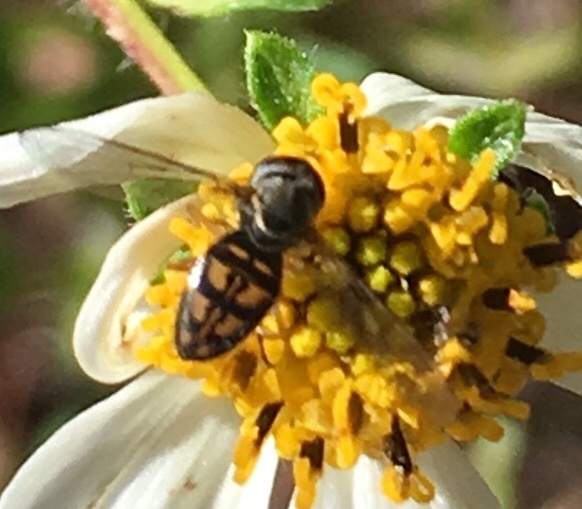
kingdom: Animalia
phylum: Arthropoda
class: Insecta
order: Diptera
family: Syrphidae
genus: Toxomerus
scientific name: Toxomerus marginatus
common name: Syrphid fly
